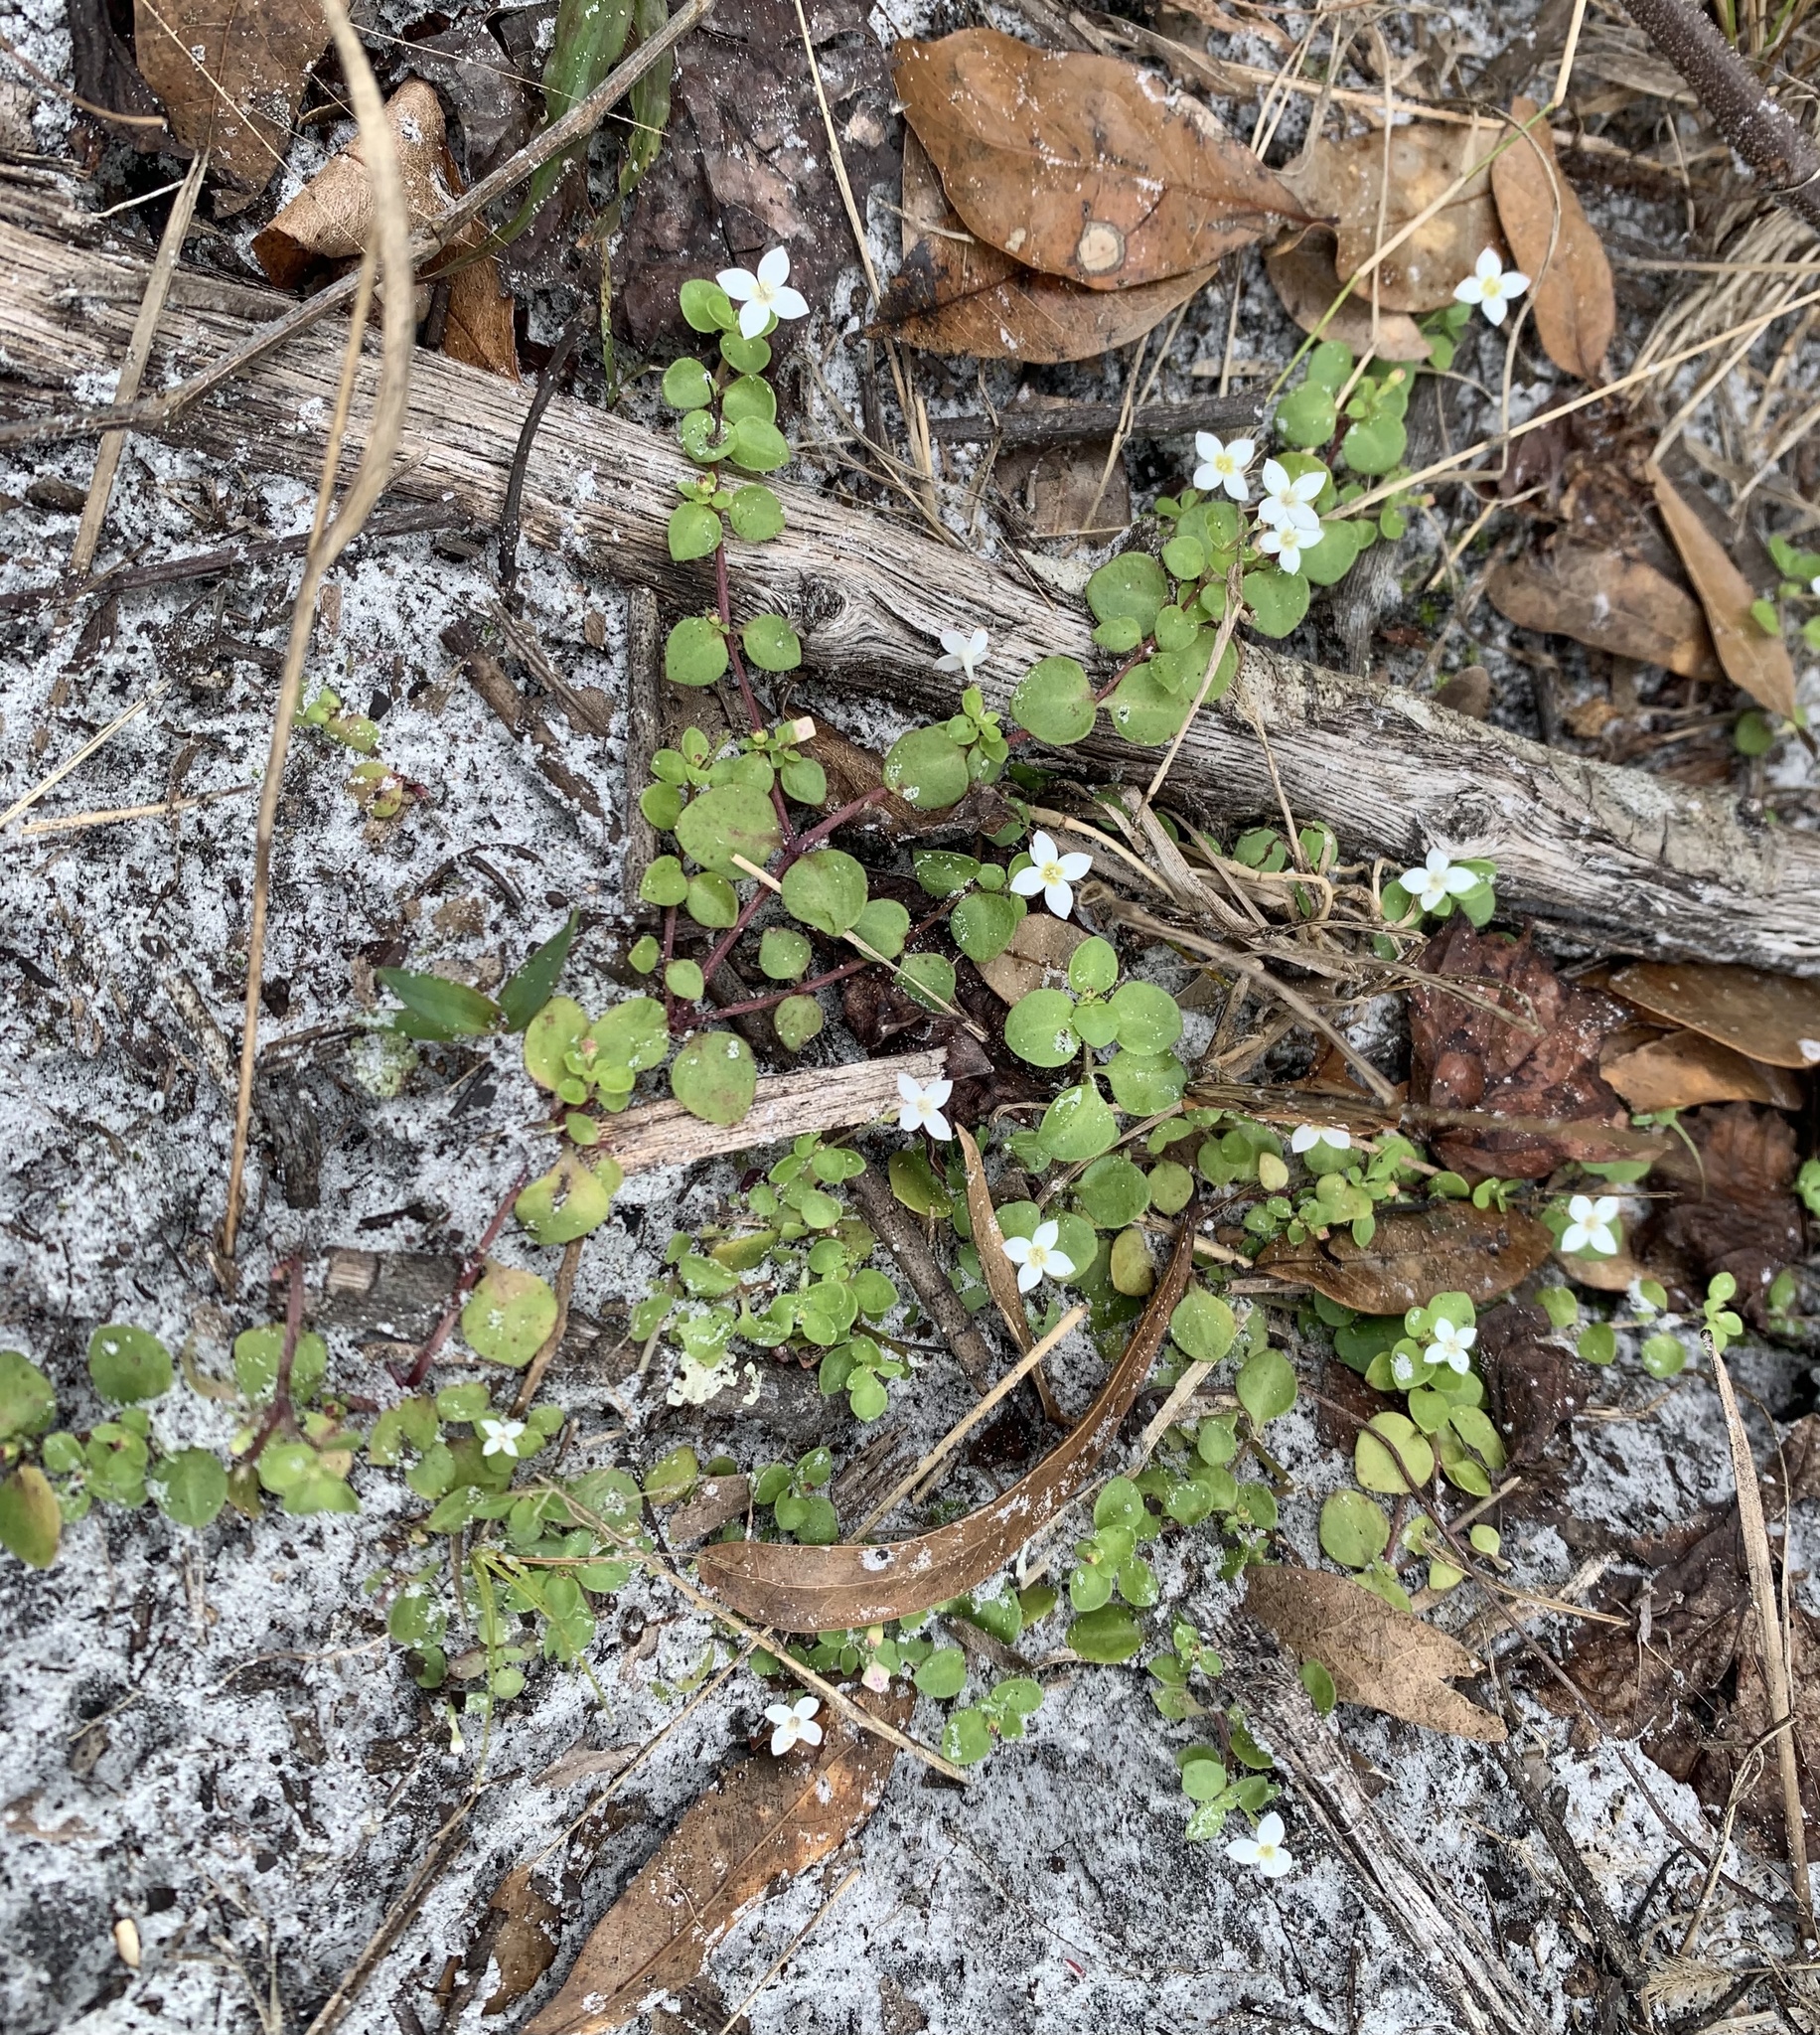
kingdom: Plantae
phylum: Tracheophyta
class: Magnoliopsida
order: Gentianales
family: Rubiaceae
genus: Houstonia
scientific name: Houstonia procumbens
